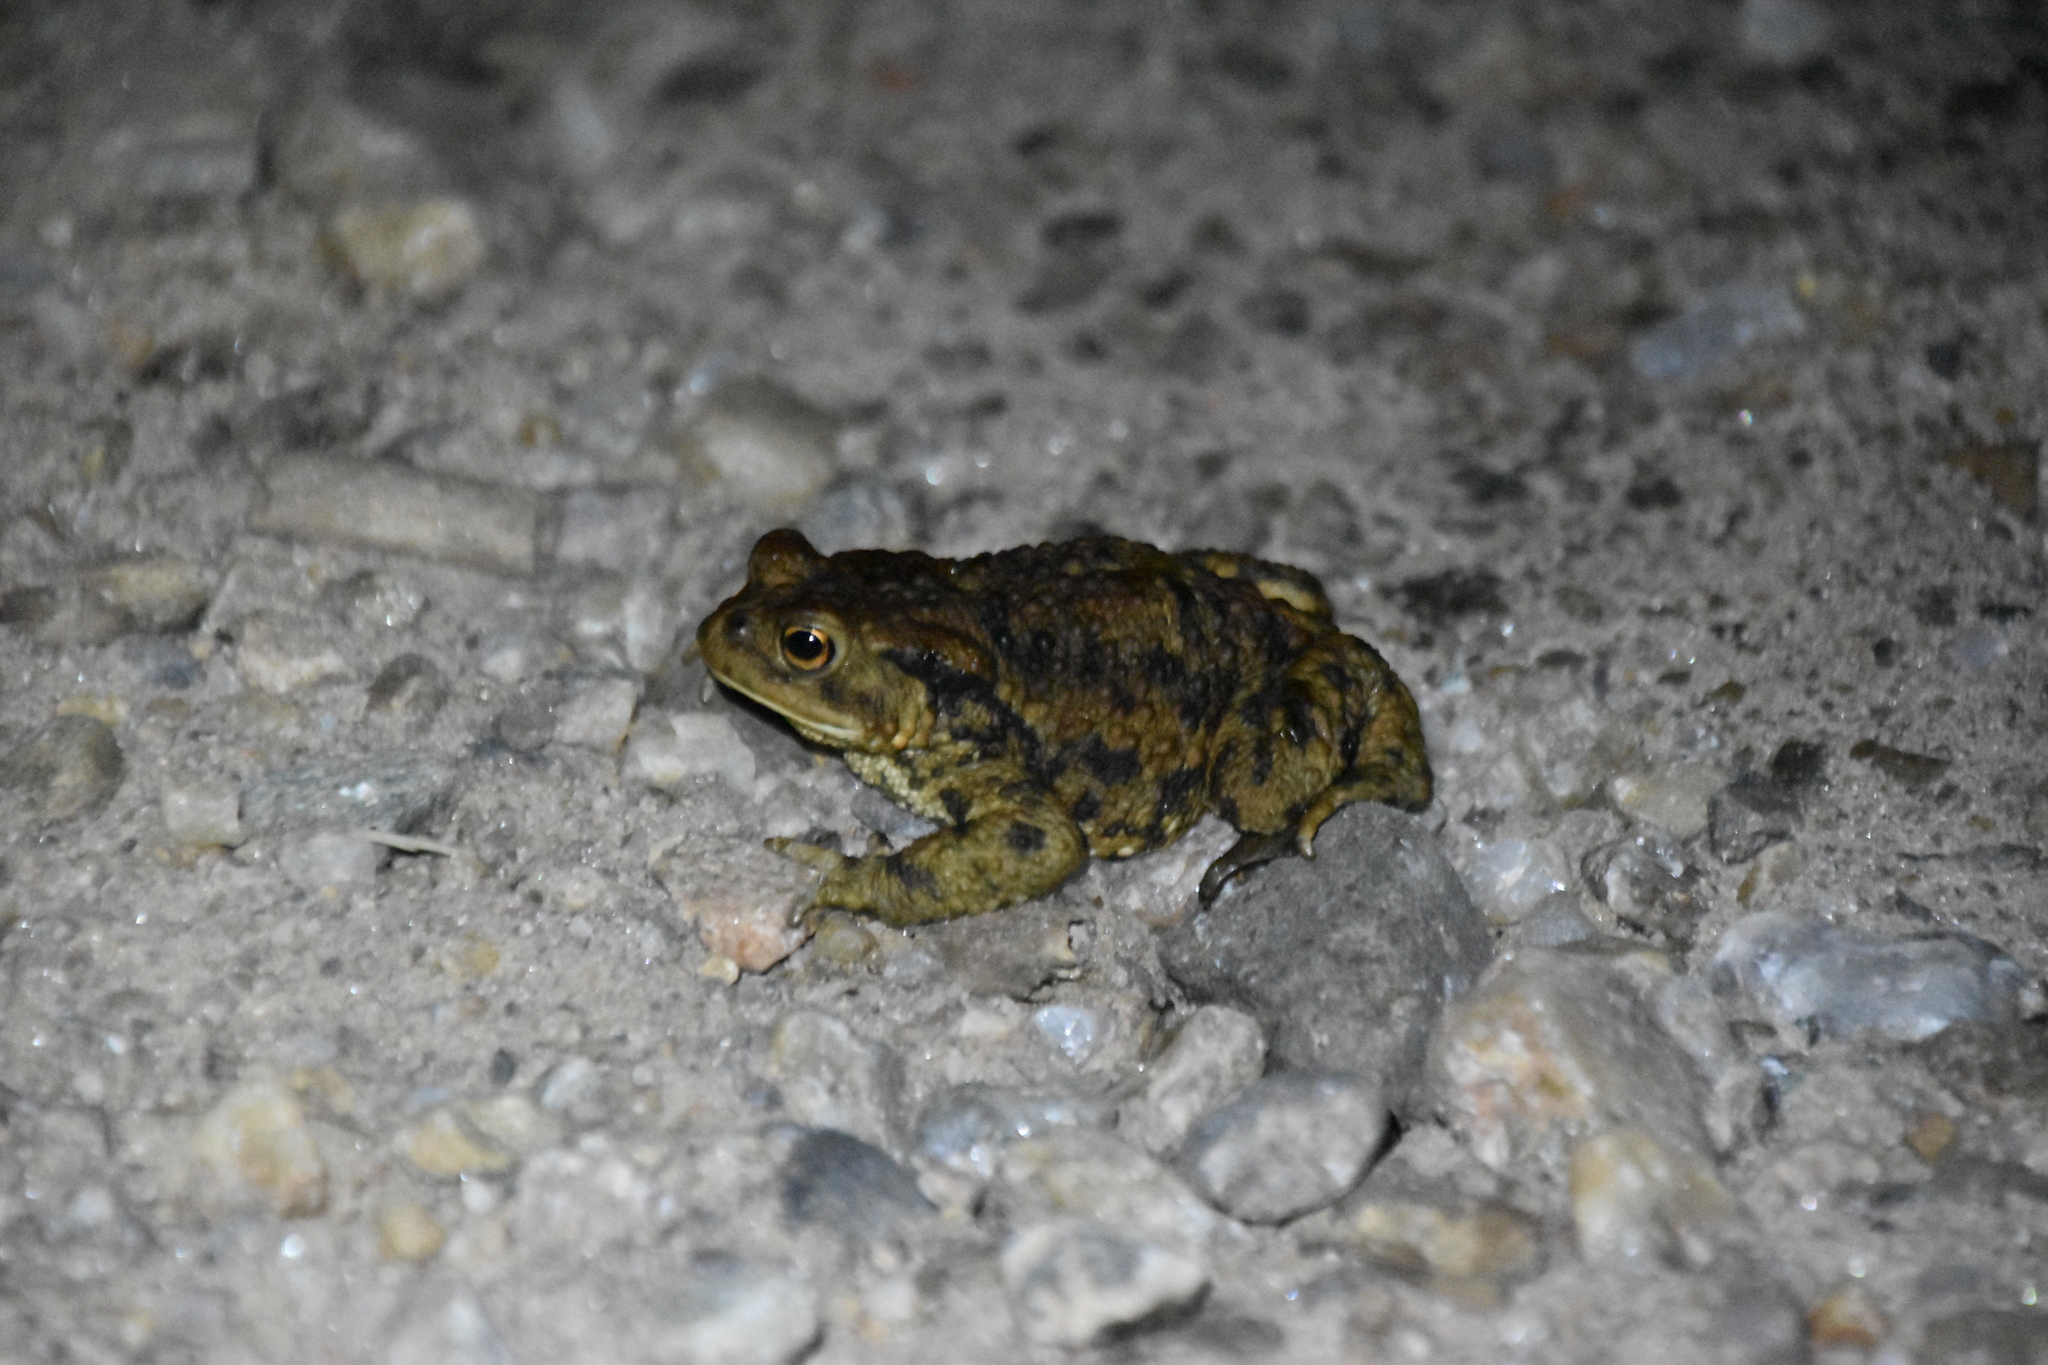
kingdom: Animalia
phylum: Chordata
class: Amphibia
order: Anura
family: Bufonidae
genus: Bufo
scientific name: Bufo bufo
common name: Common toad
